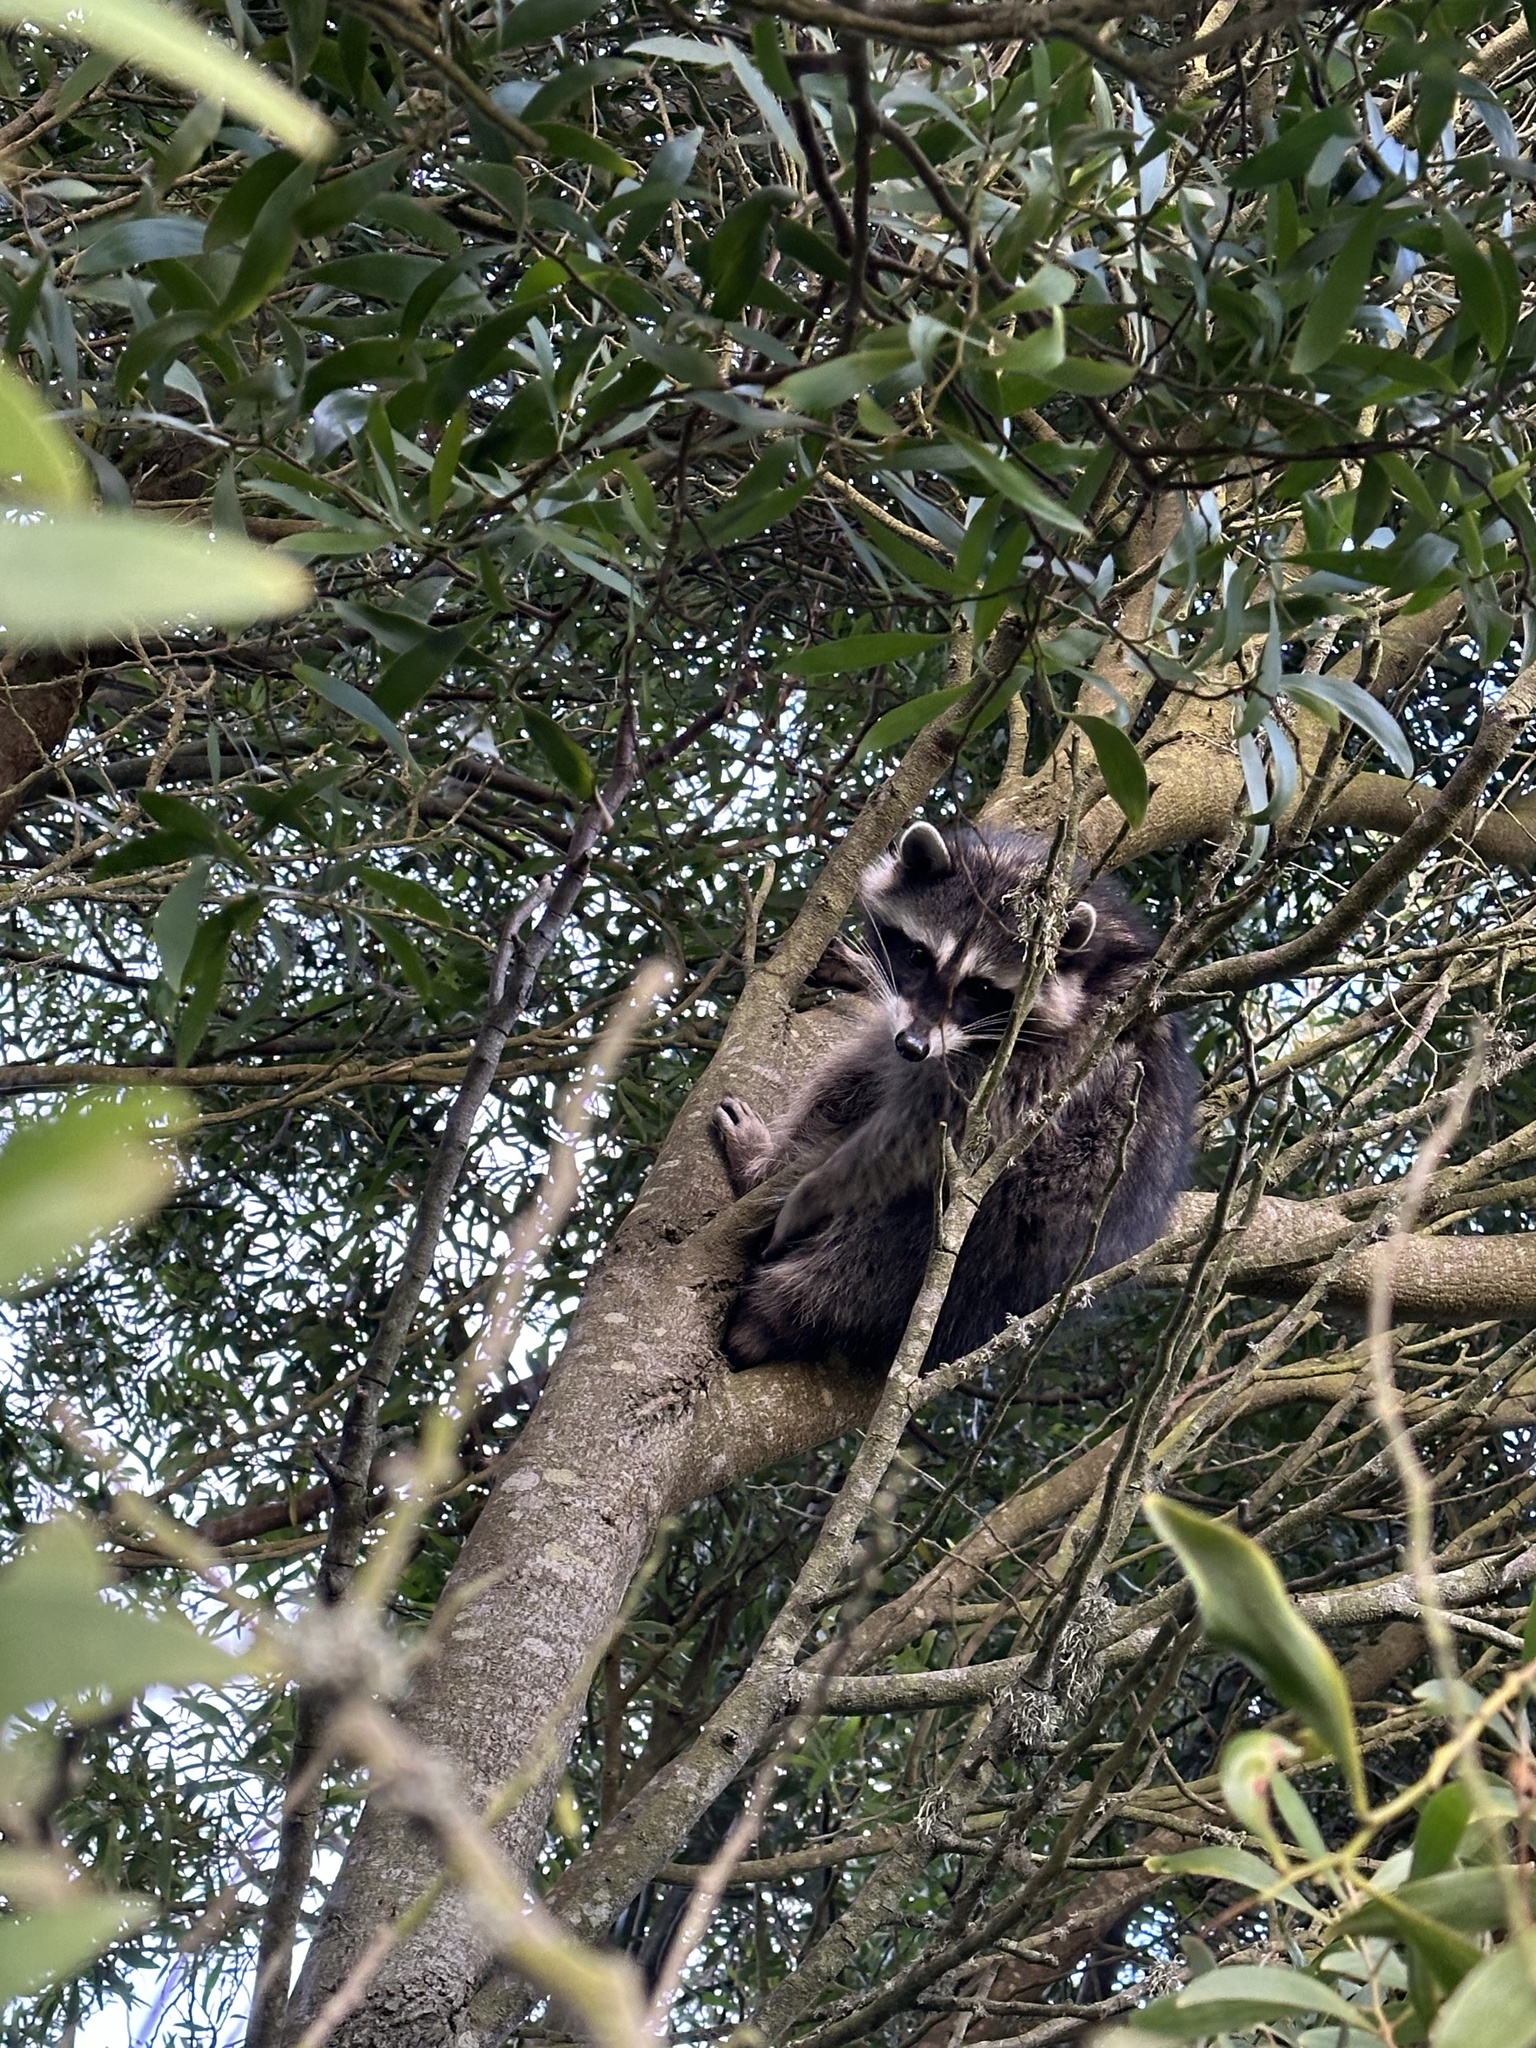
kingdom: Animalia
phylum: Chordata
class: Mammalia
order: Carnivora
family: Procyonidae
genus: Procyon
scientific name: Procyon lotor
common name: Raccoon
